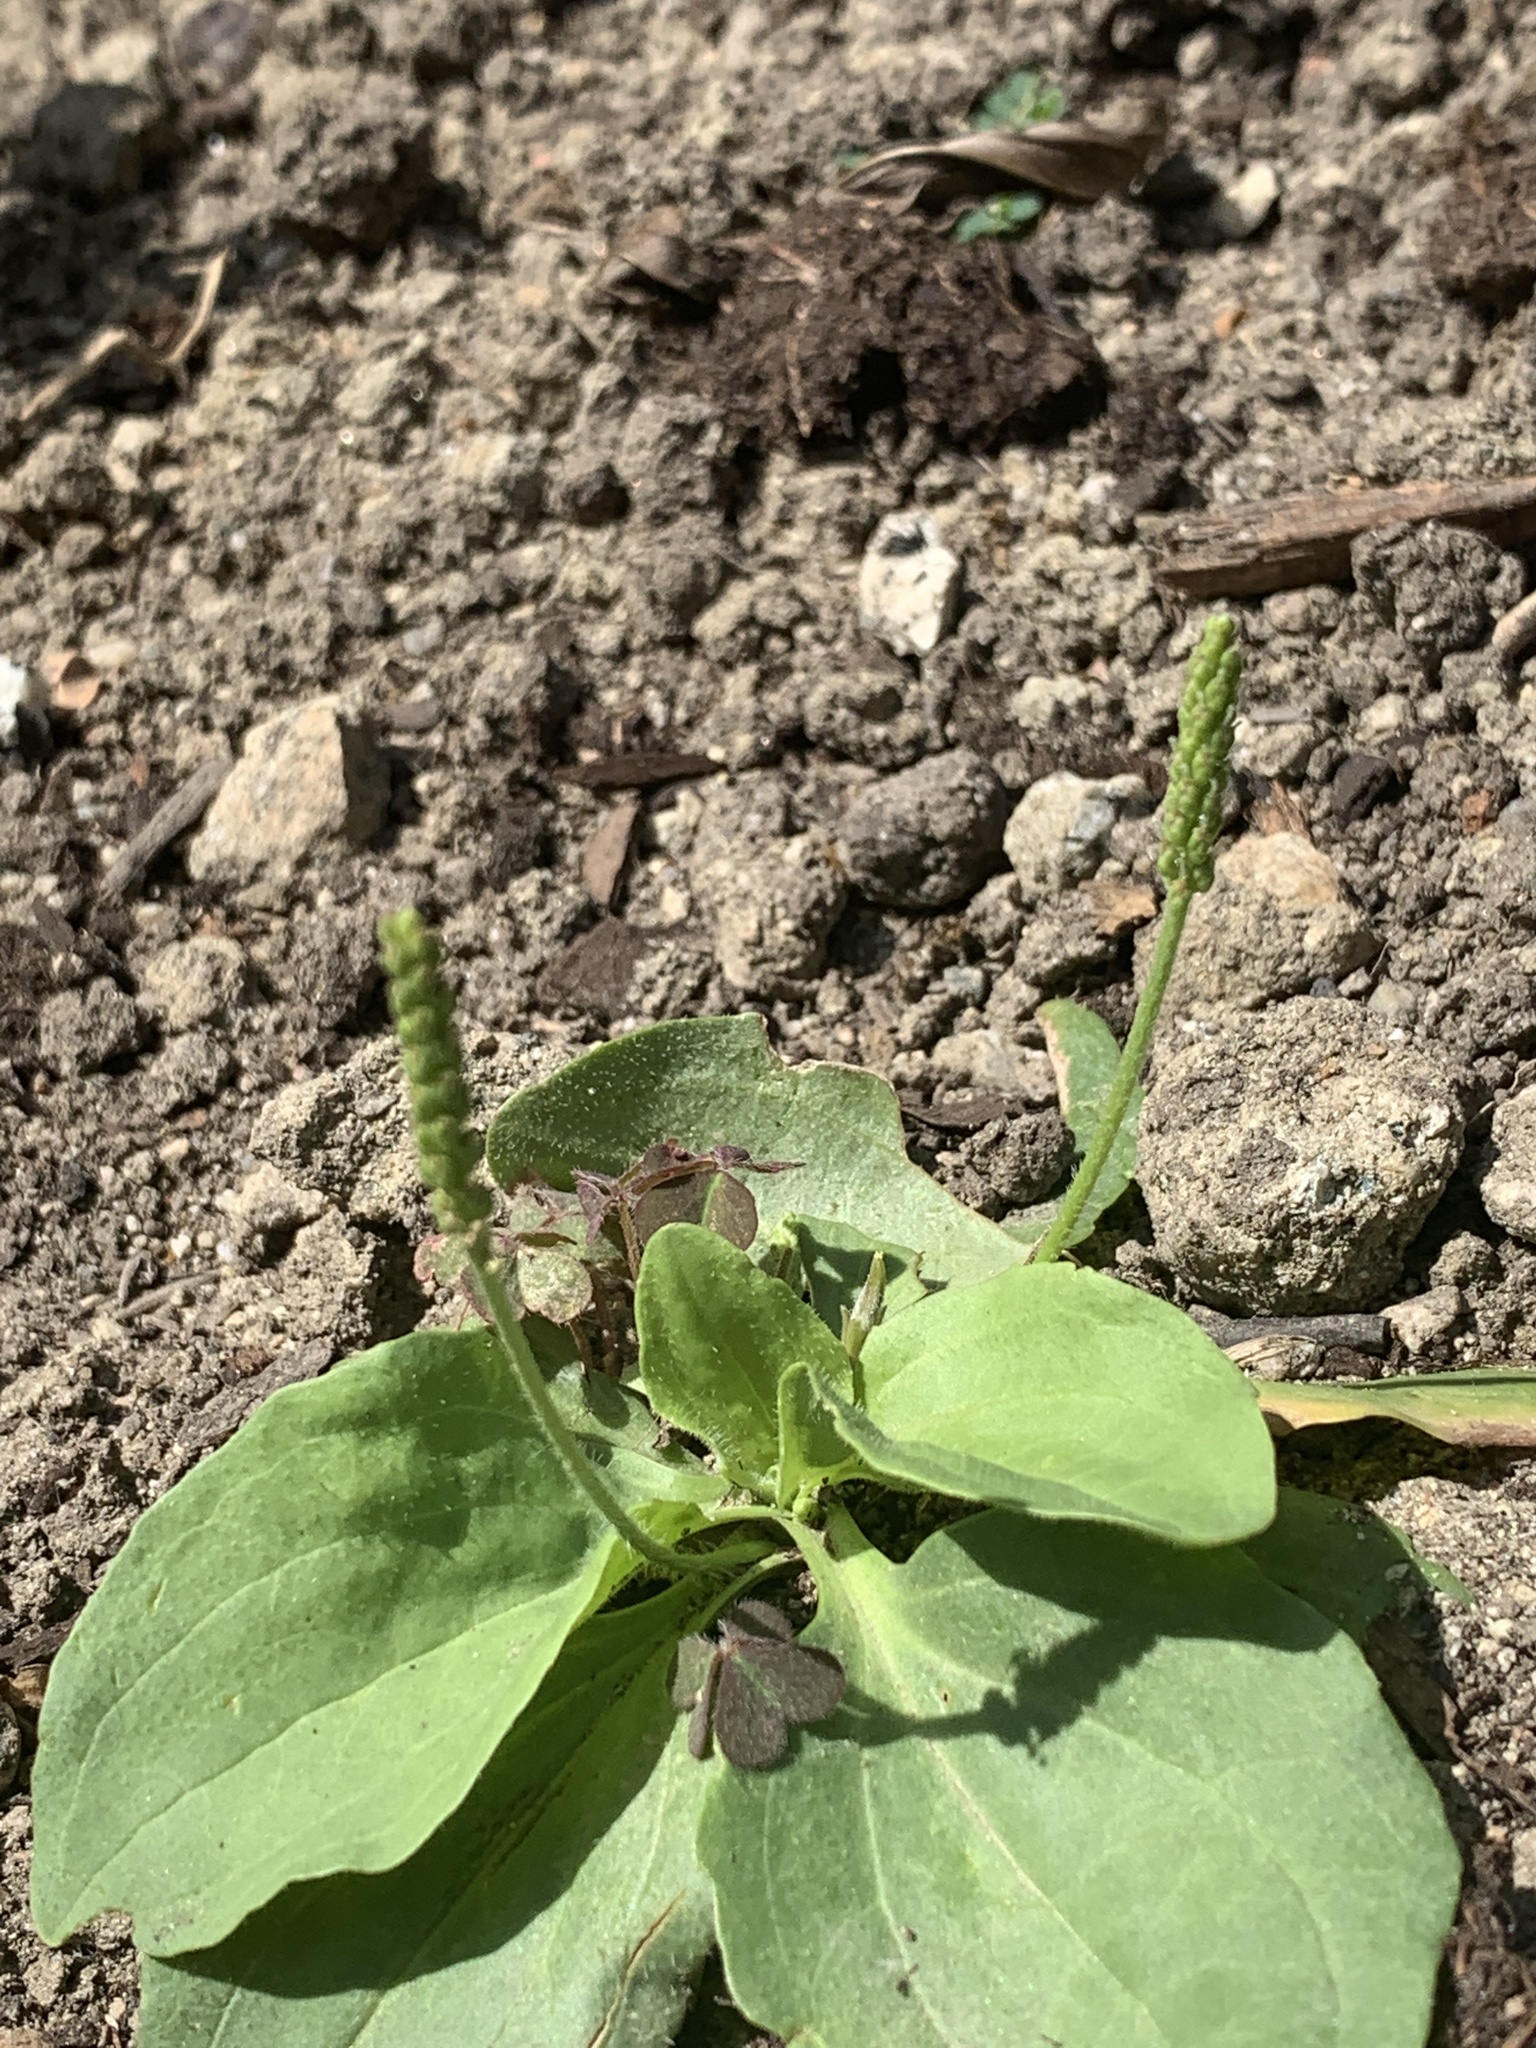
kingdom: Plantae
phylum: Tracheophyta
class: Magnoliopsida
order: Lamiales
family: Plantaginaceae
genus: Plantago
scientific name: Plantago major
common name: Common plantain
